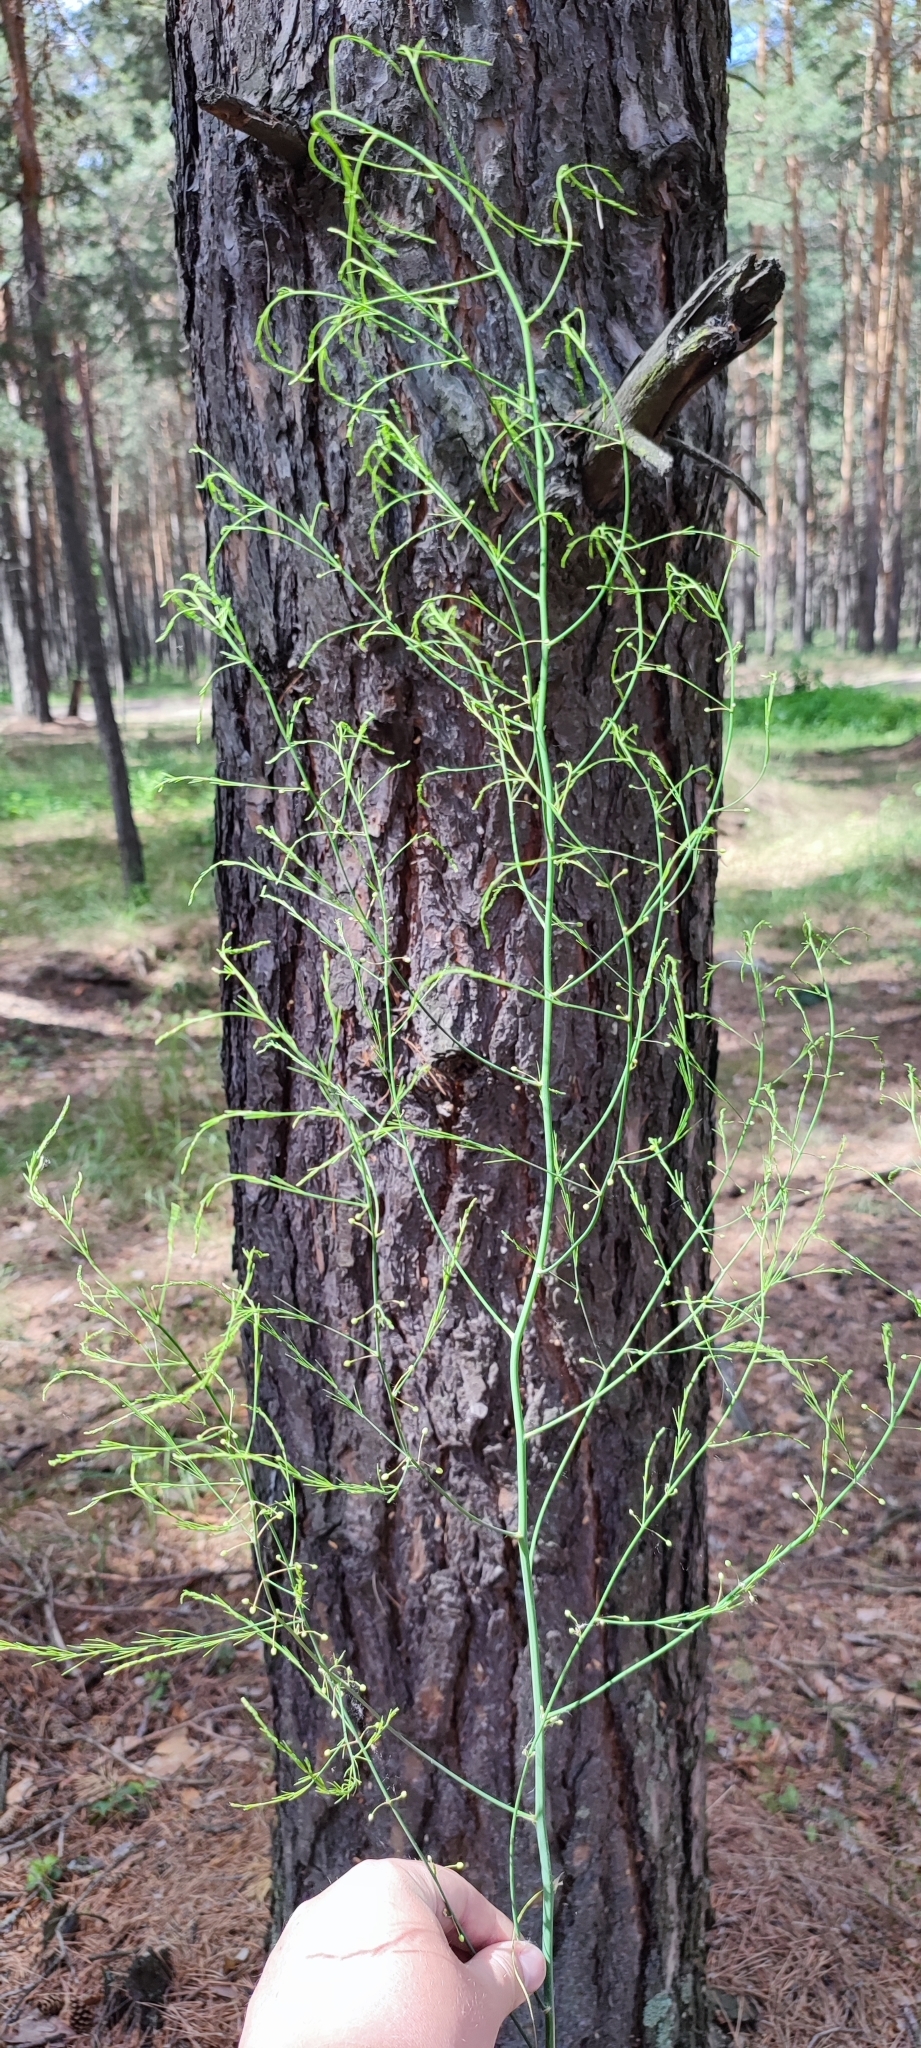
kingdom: Plantae
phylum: Tracheophyta
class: Liliopsida
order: Asparagales
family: Asparagaceae
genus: Asparagus
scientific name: Asparagus officinalis
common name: Garden asparagus
